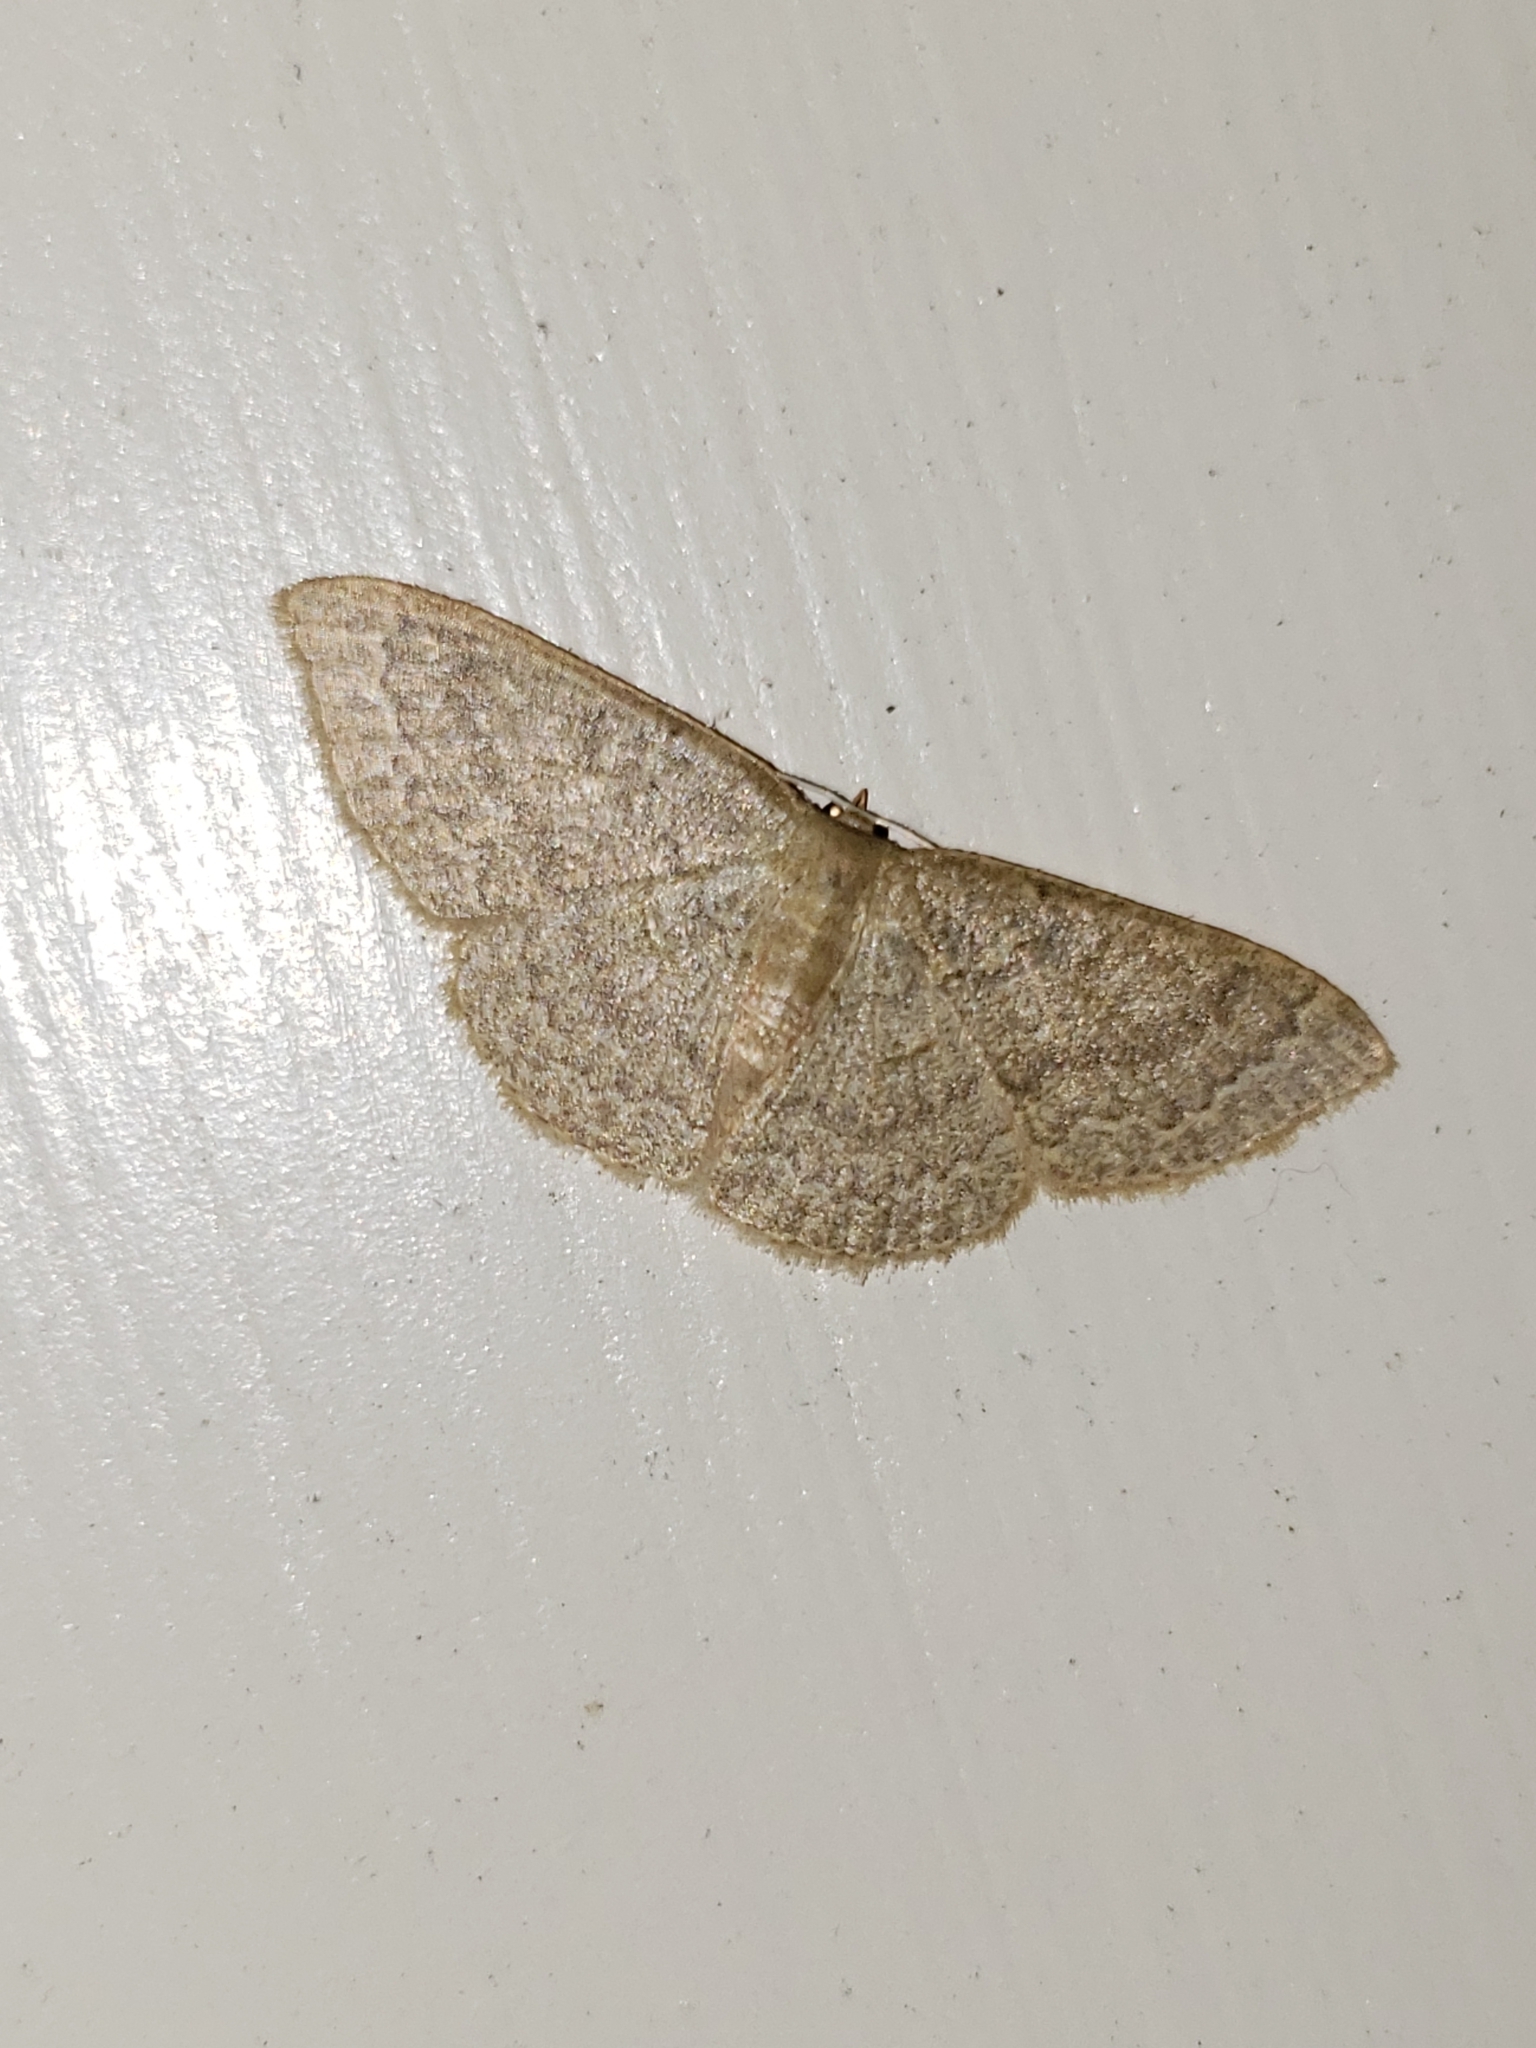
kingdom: Animalia
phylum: Arthropoda
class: Insecta
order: Lepidoptera
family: Geometridae
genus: Pleuroprucha
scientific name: Pleuroprucha insulsaria
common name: Common tan wave
